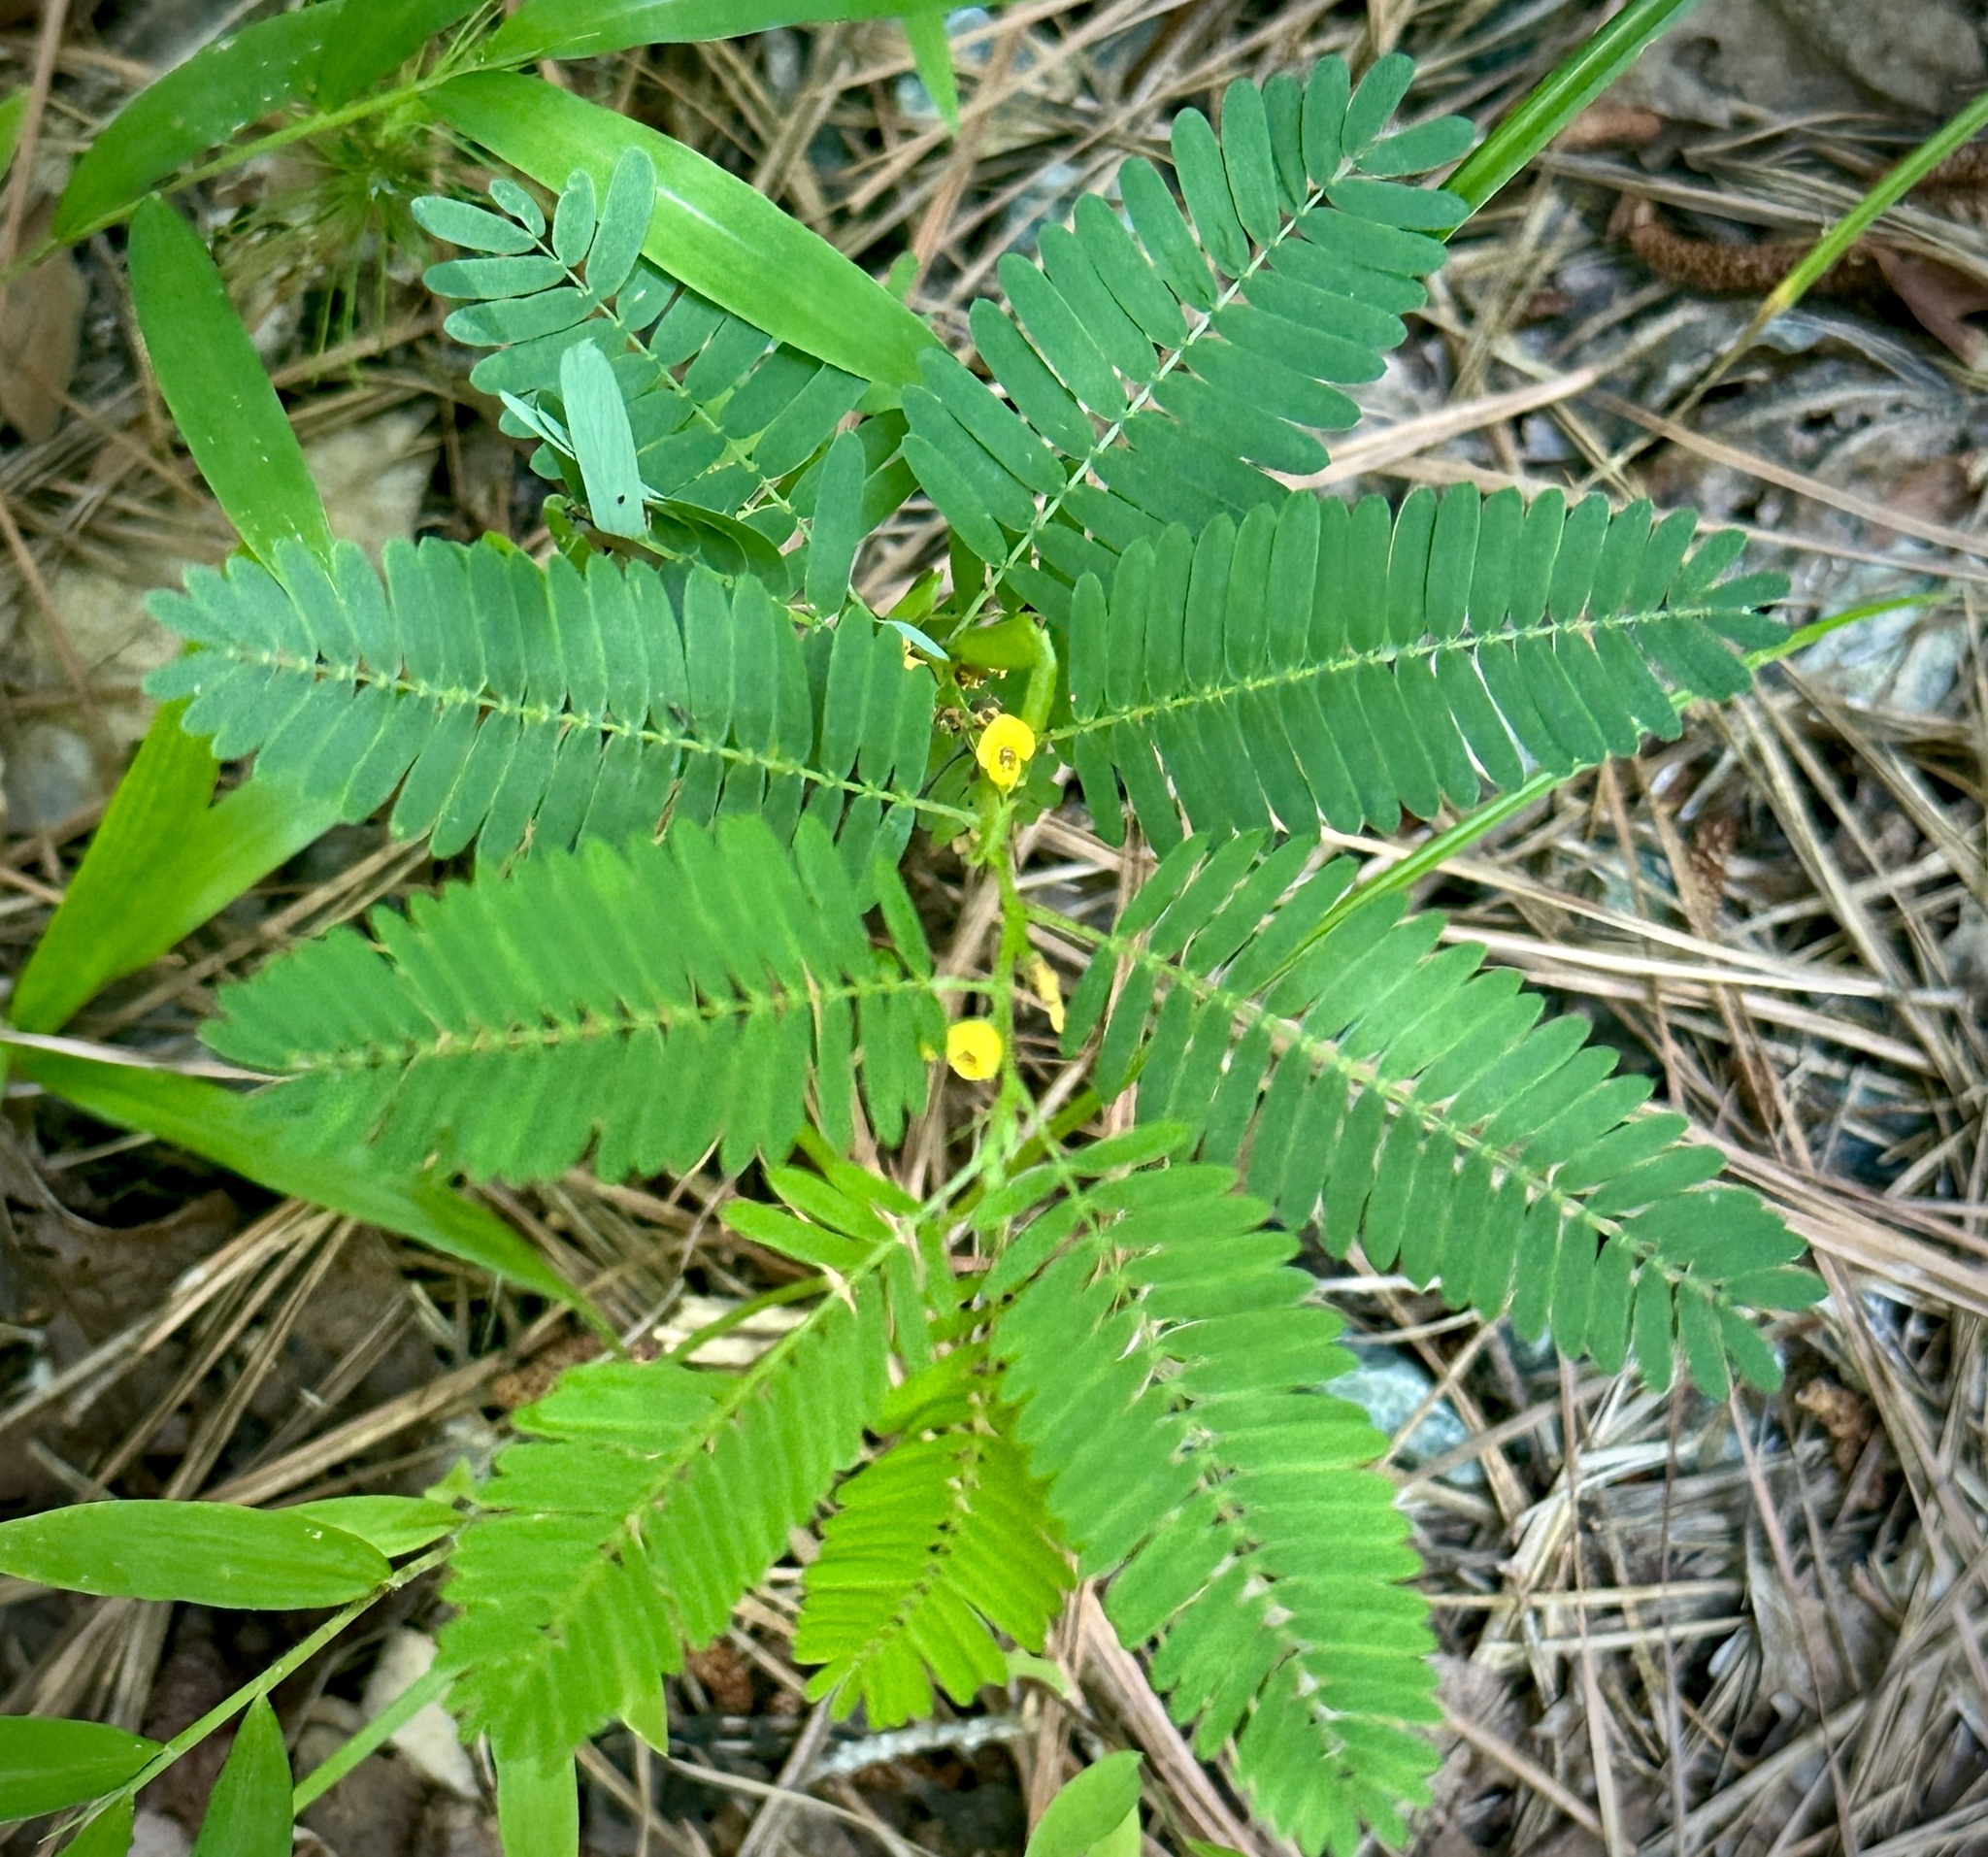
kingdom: Plantae
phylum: Tracheophyta
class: Magnoliopsida
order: Fabales
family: Fabaceae
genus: Chamaecrista
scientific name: Chamaecrista nictitans
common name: Sensitive cassia
